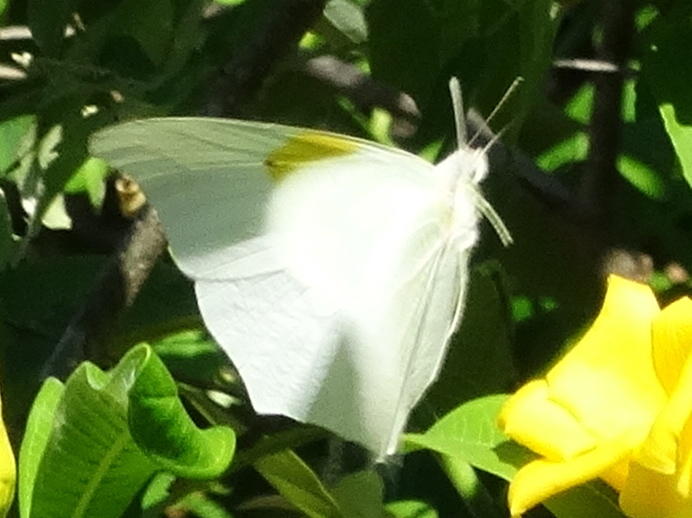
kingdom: Animalia
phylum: Arthropoda
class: Insecta
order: Lepidoptera
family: Pieridae
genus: Anteos
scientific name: Anteos clorinde
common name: White angled sulphur
